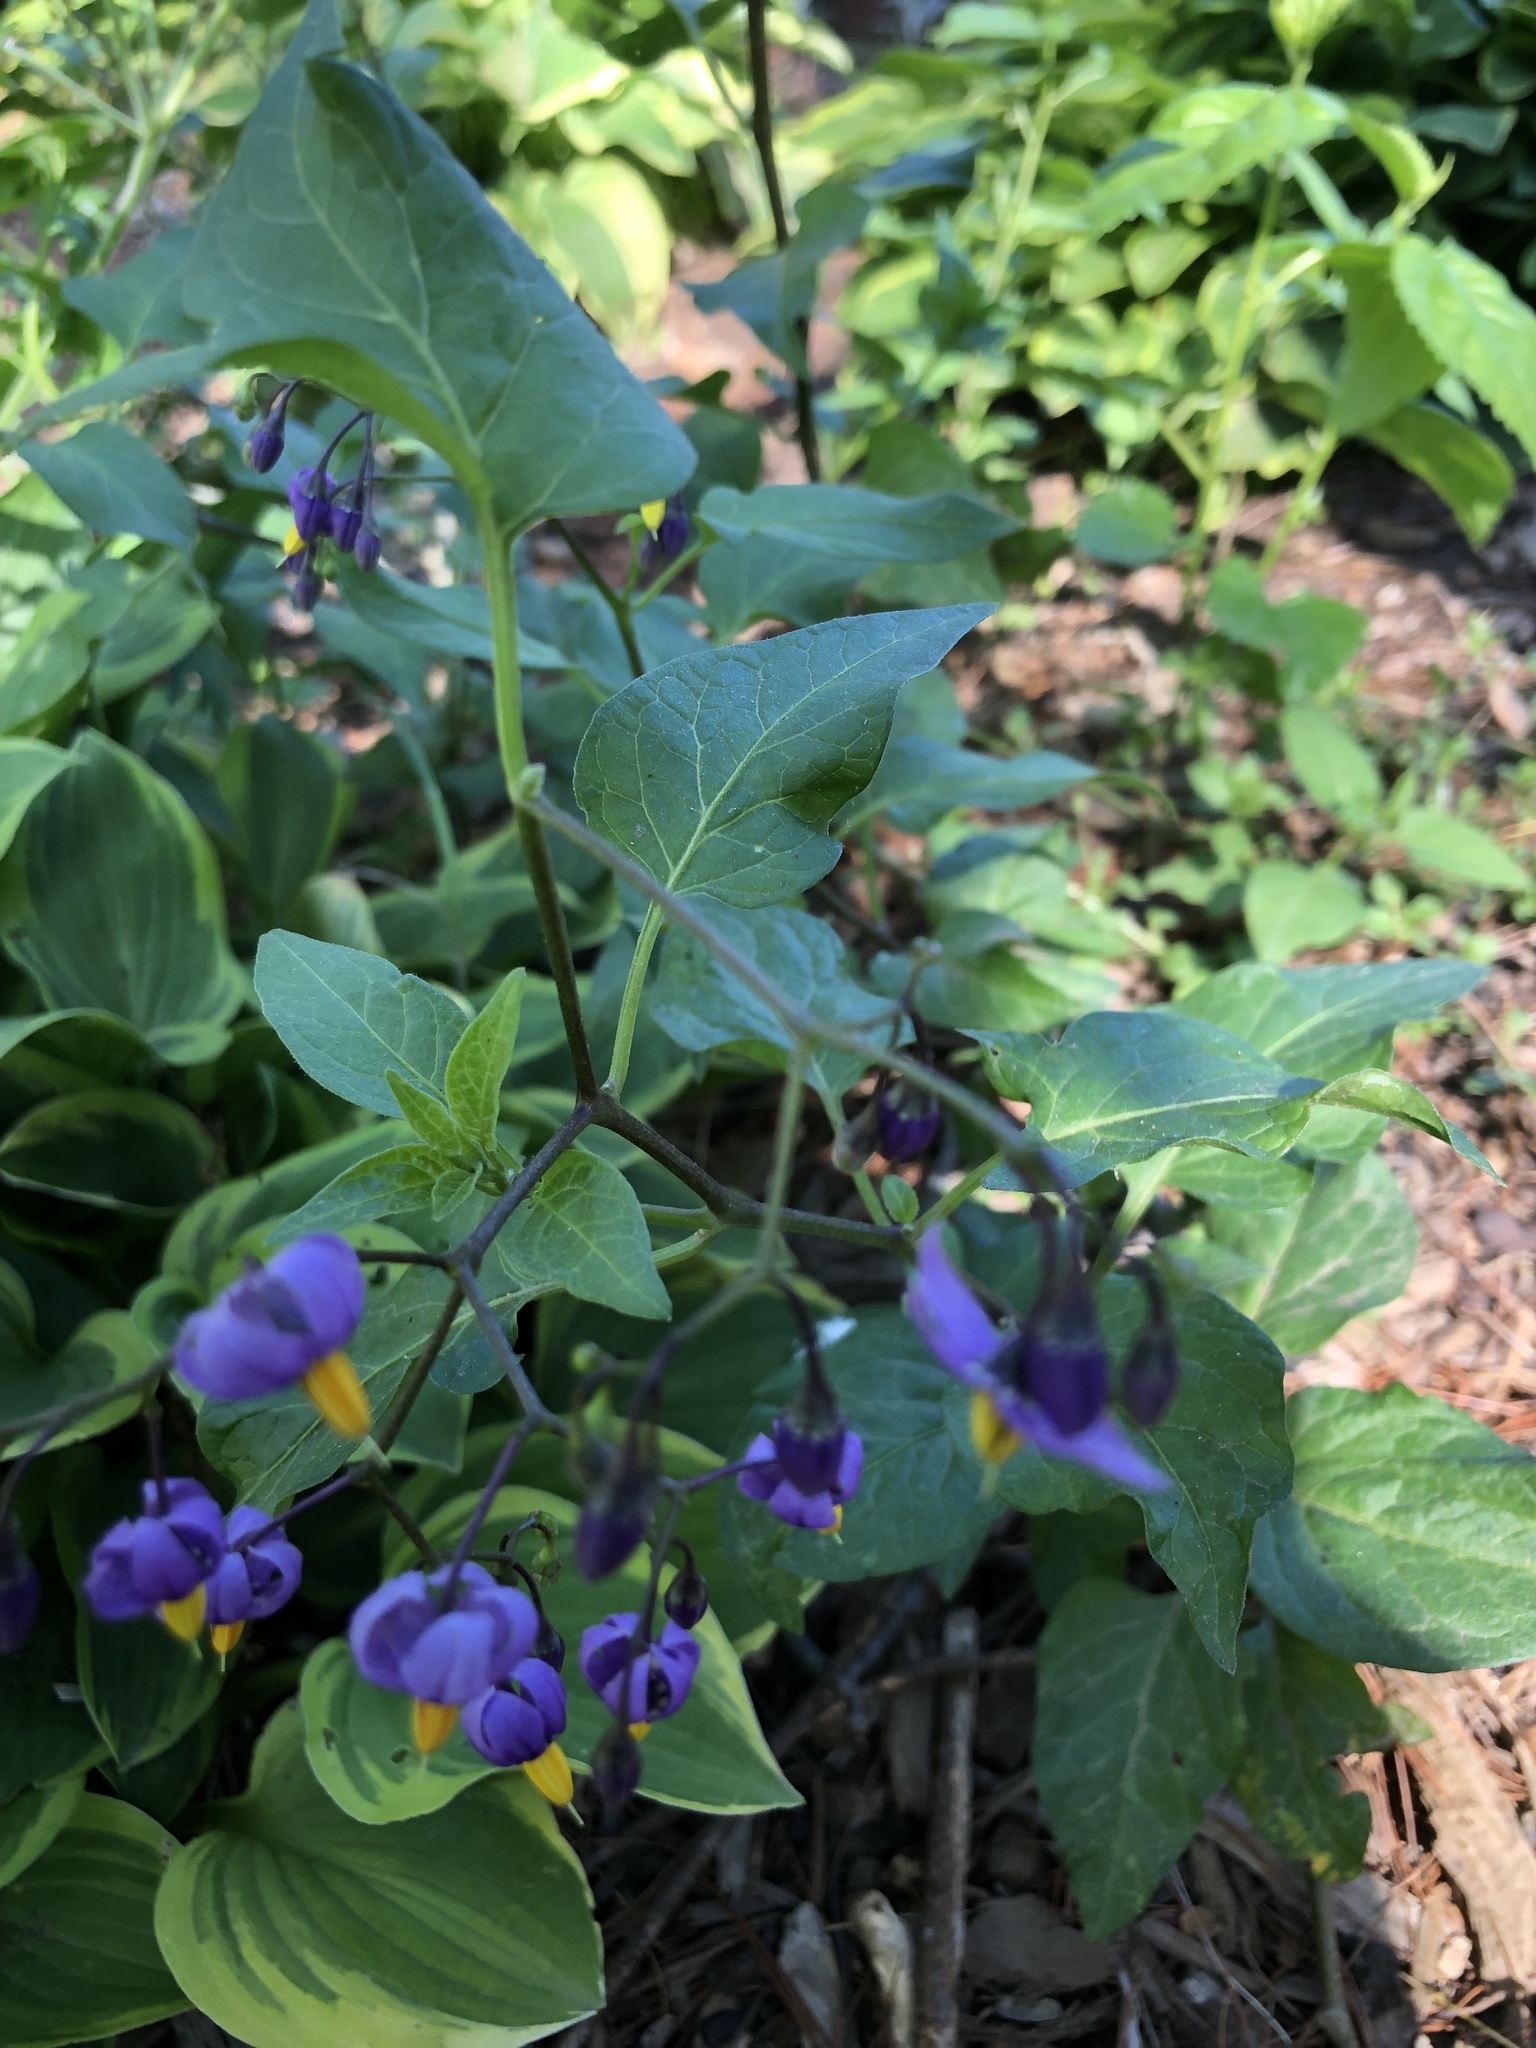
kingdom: Plantae
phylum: Tracheophyta
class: Magnoliopsida
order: Solanales
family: Solanaceae
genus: Solanum
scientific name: Solanum dulcamara
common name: Climbing nightshade
